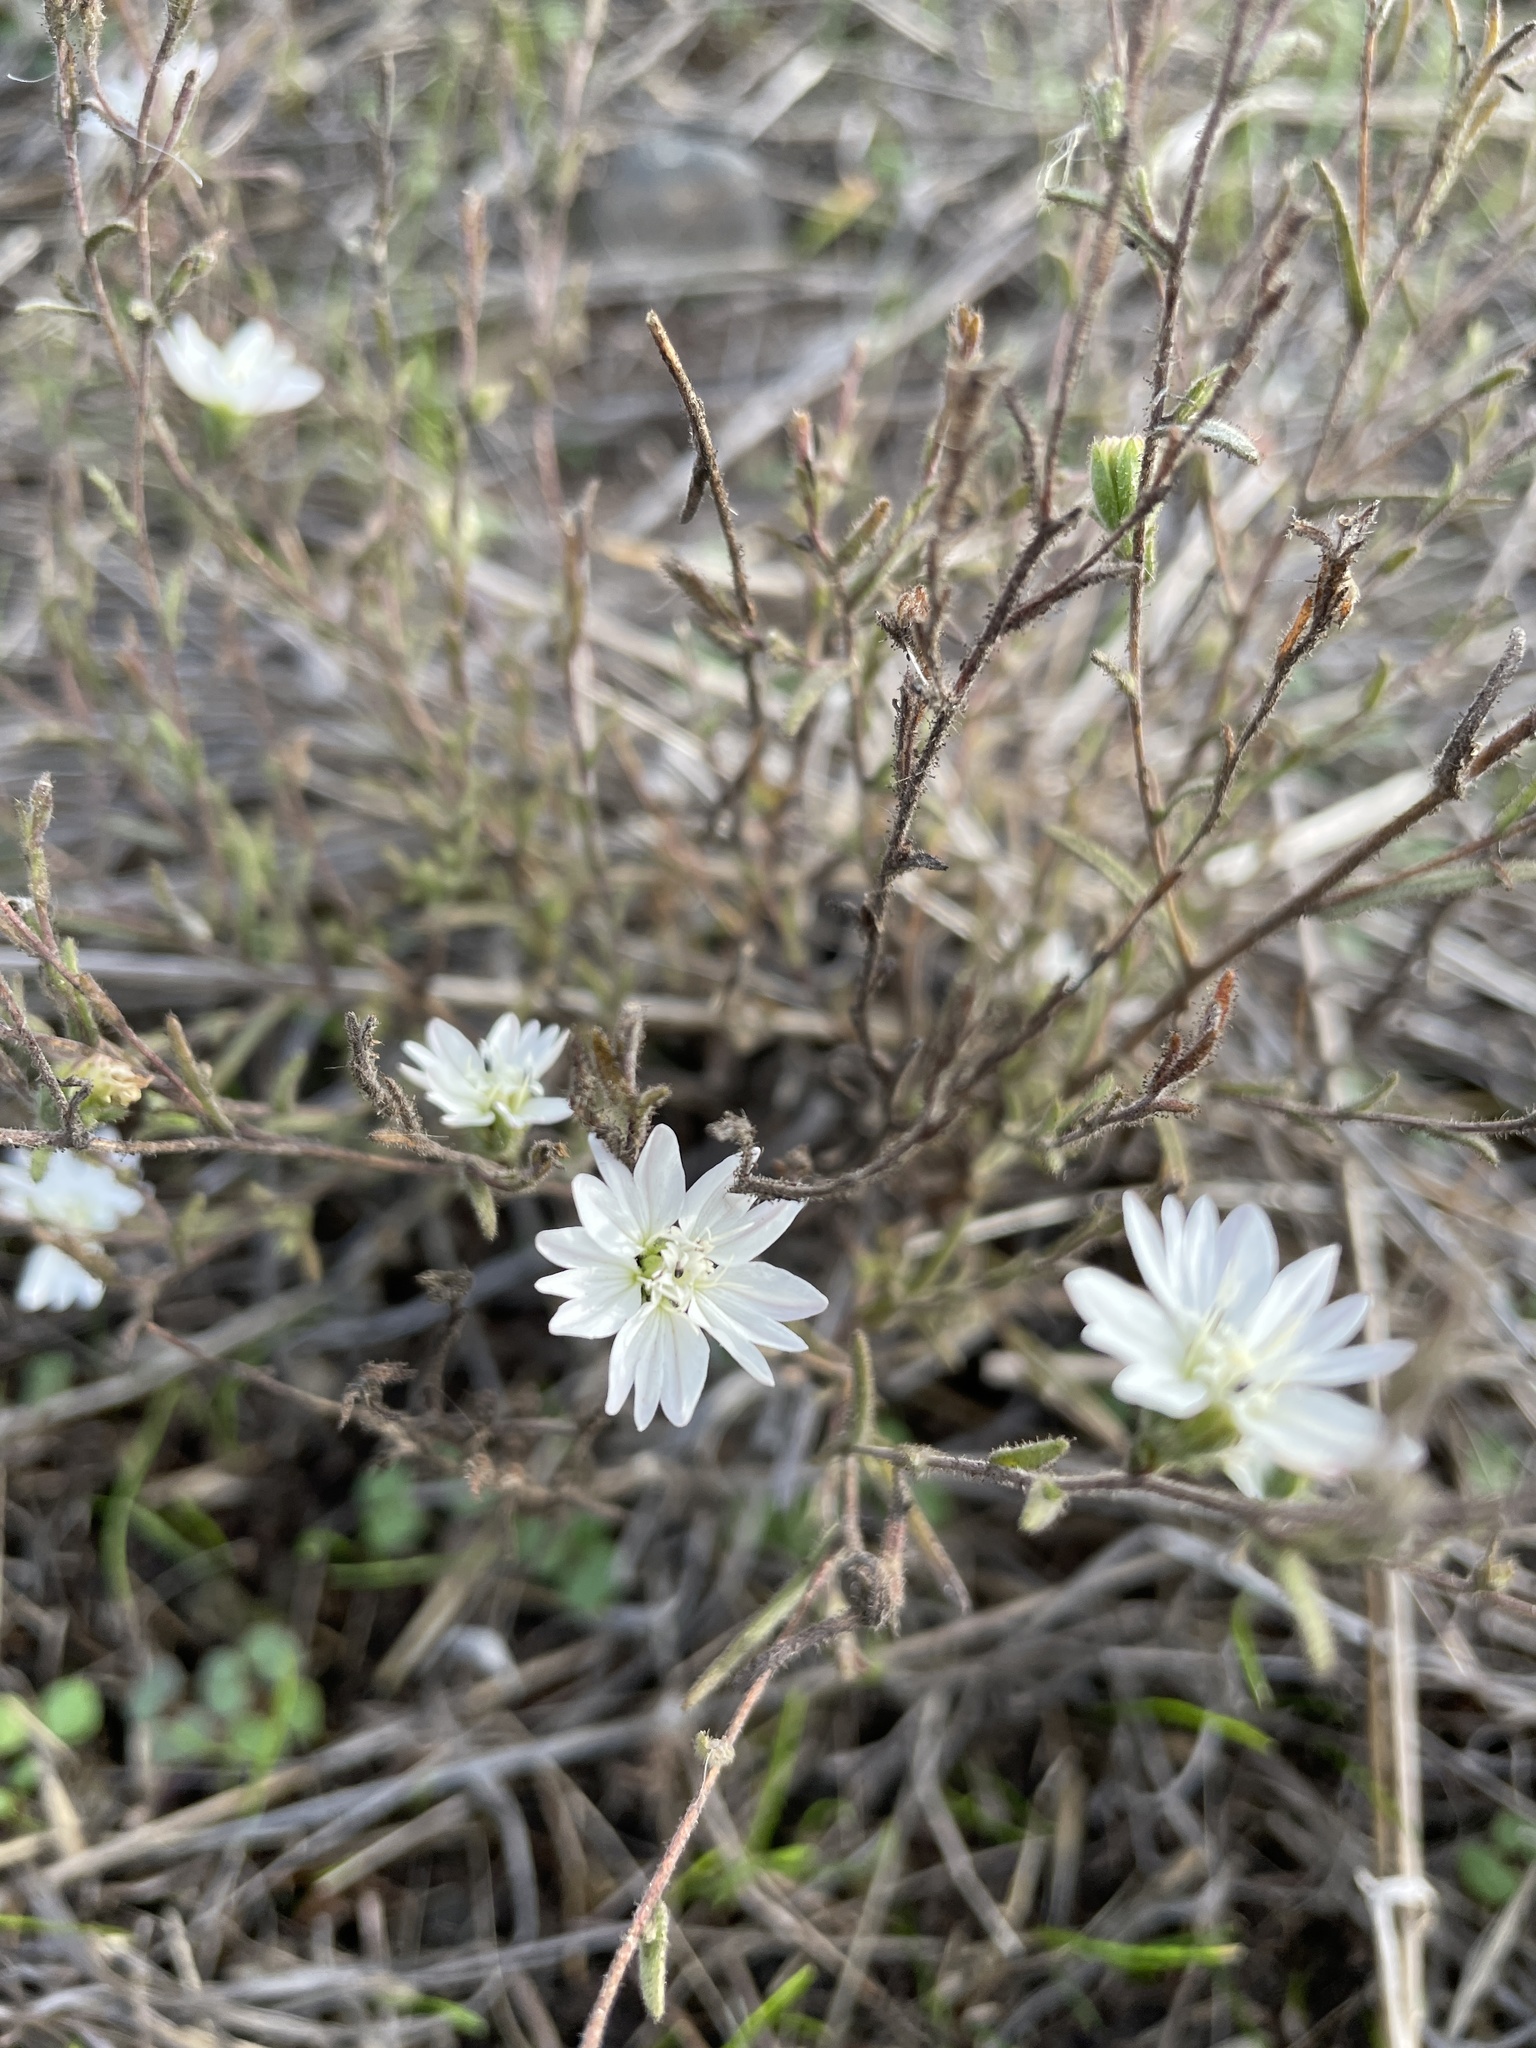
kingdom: Plantae
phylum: Tracheophyta
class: Magnoliopsida
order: Asterales
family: Asteraceae
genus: Hemizonia
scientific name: Hemizonia congesta
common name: Hayfield tarweed
